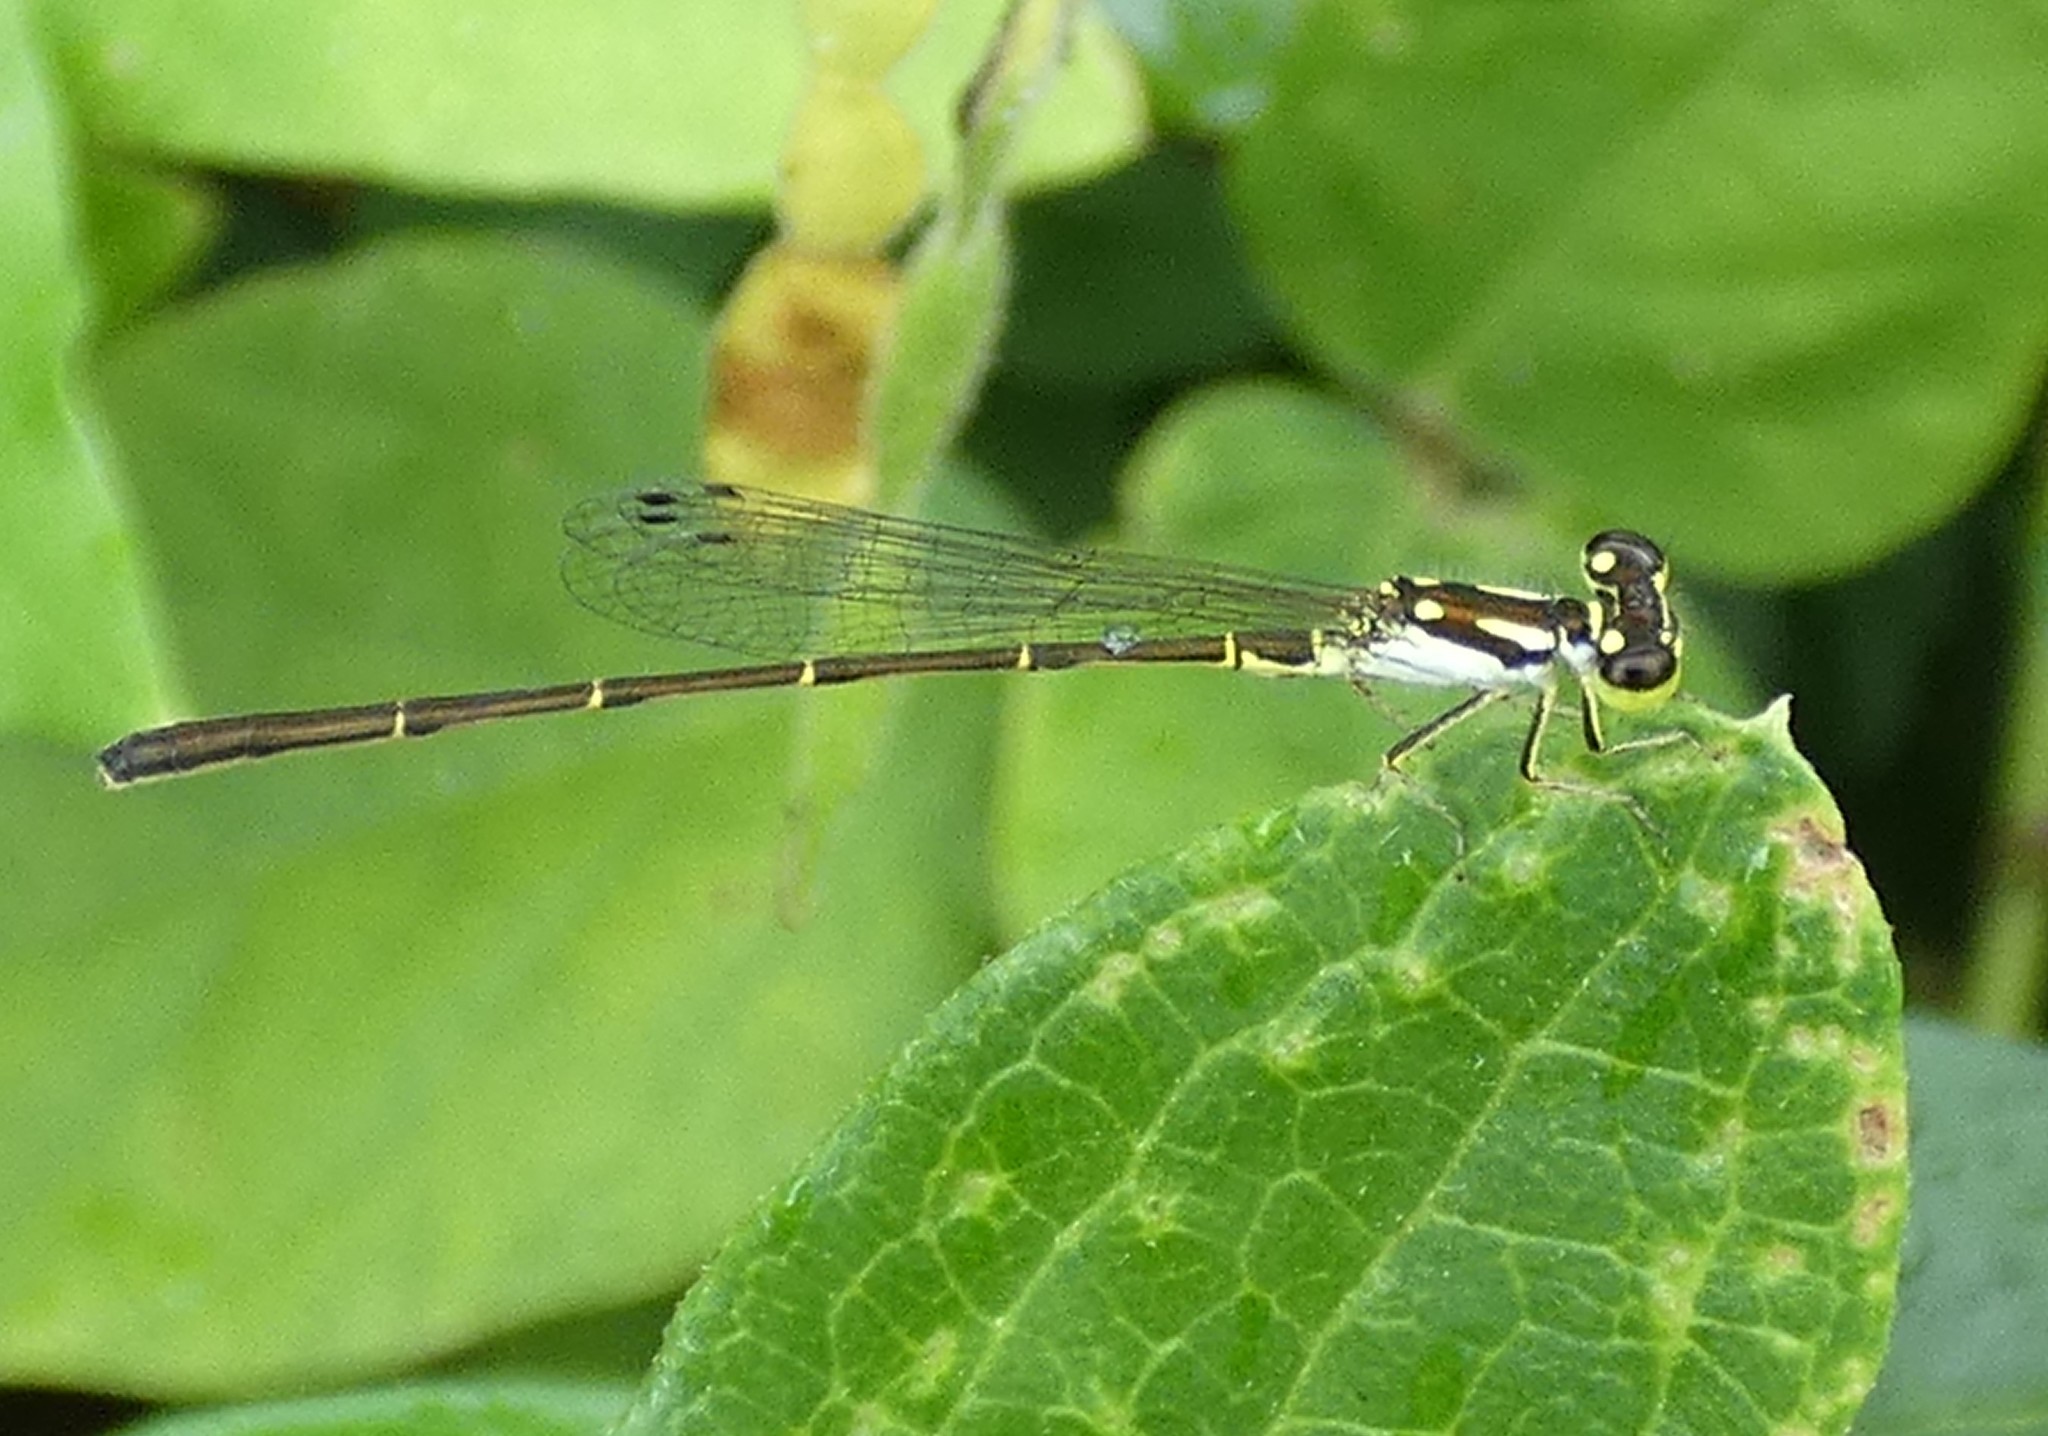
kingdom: Animalia
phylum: Arthropoda
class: Insecta
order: Odonata
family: Coenagrionidae
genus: Ischnura
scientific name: Ischnura posita
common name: Fragile forktail
